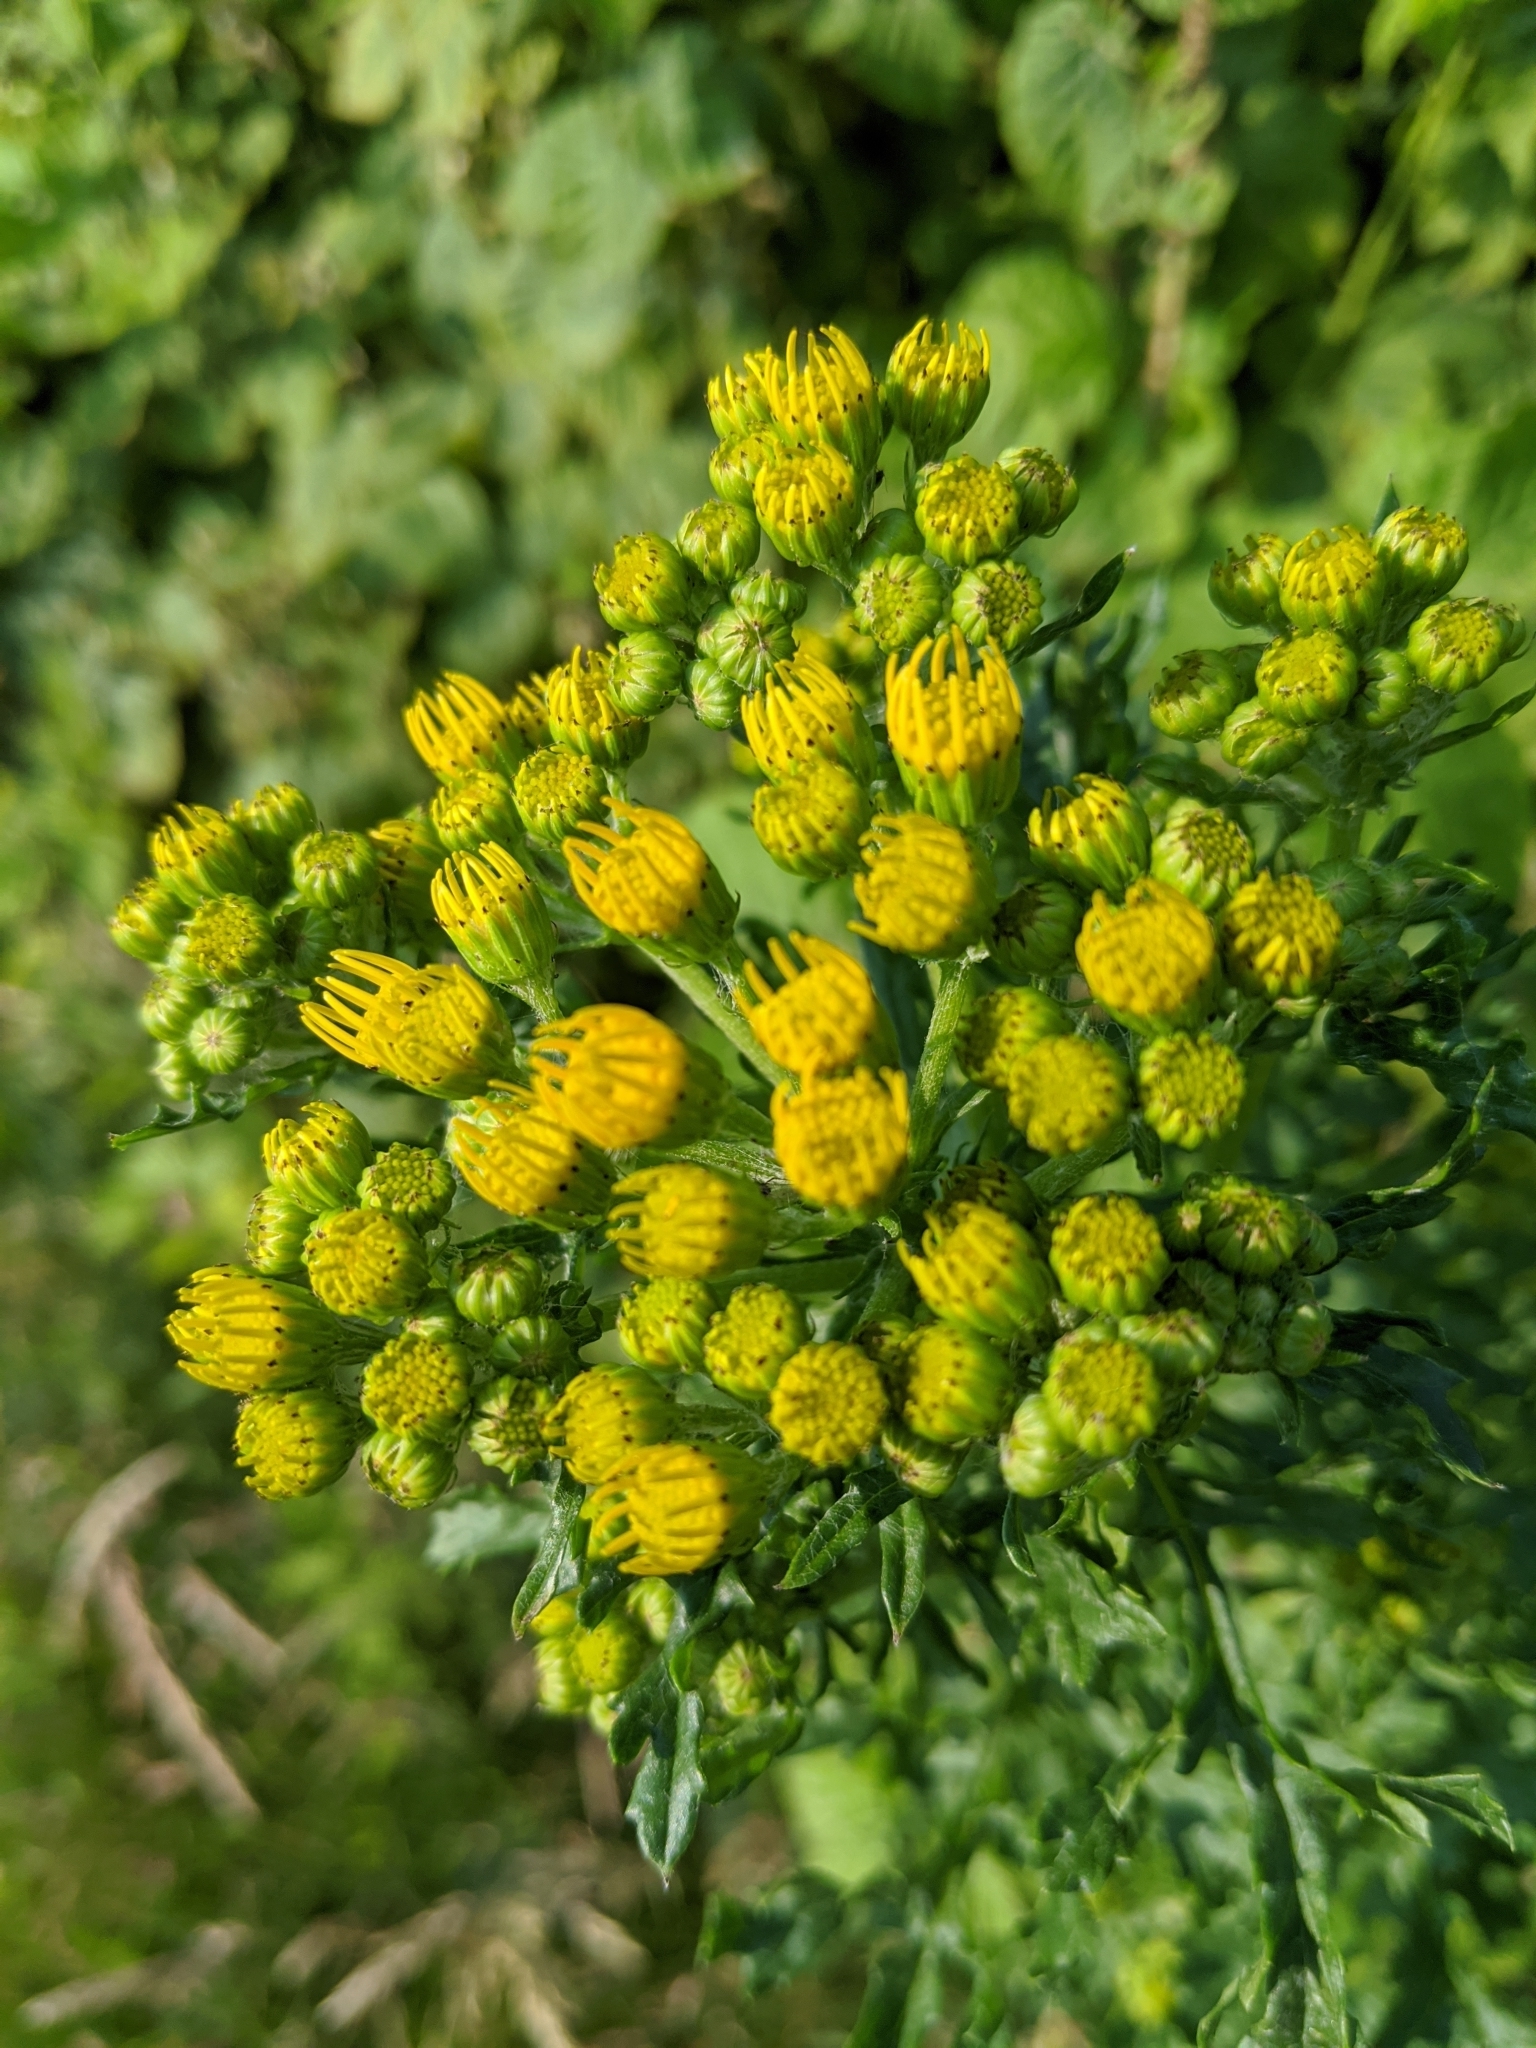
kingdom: Plantae
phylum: Tracheophyta
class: Magnoliopsida
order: Asterales
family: Asteraceae
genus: Jacobaea
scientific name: Jacobaea vulgaris
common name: Stinking willie
